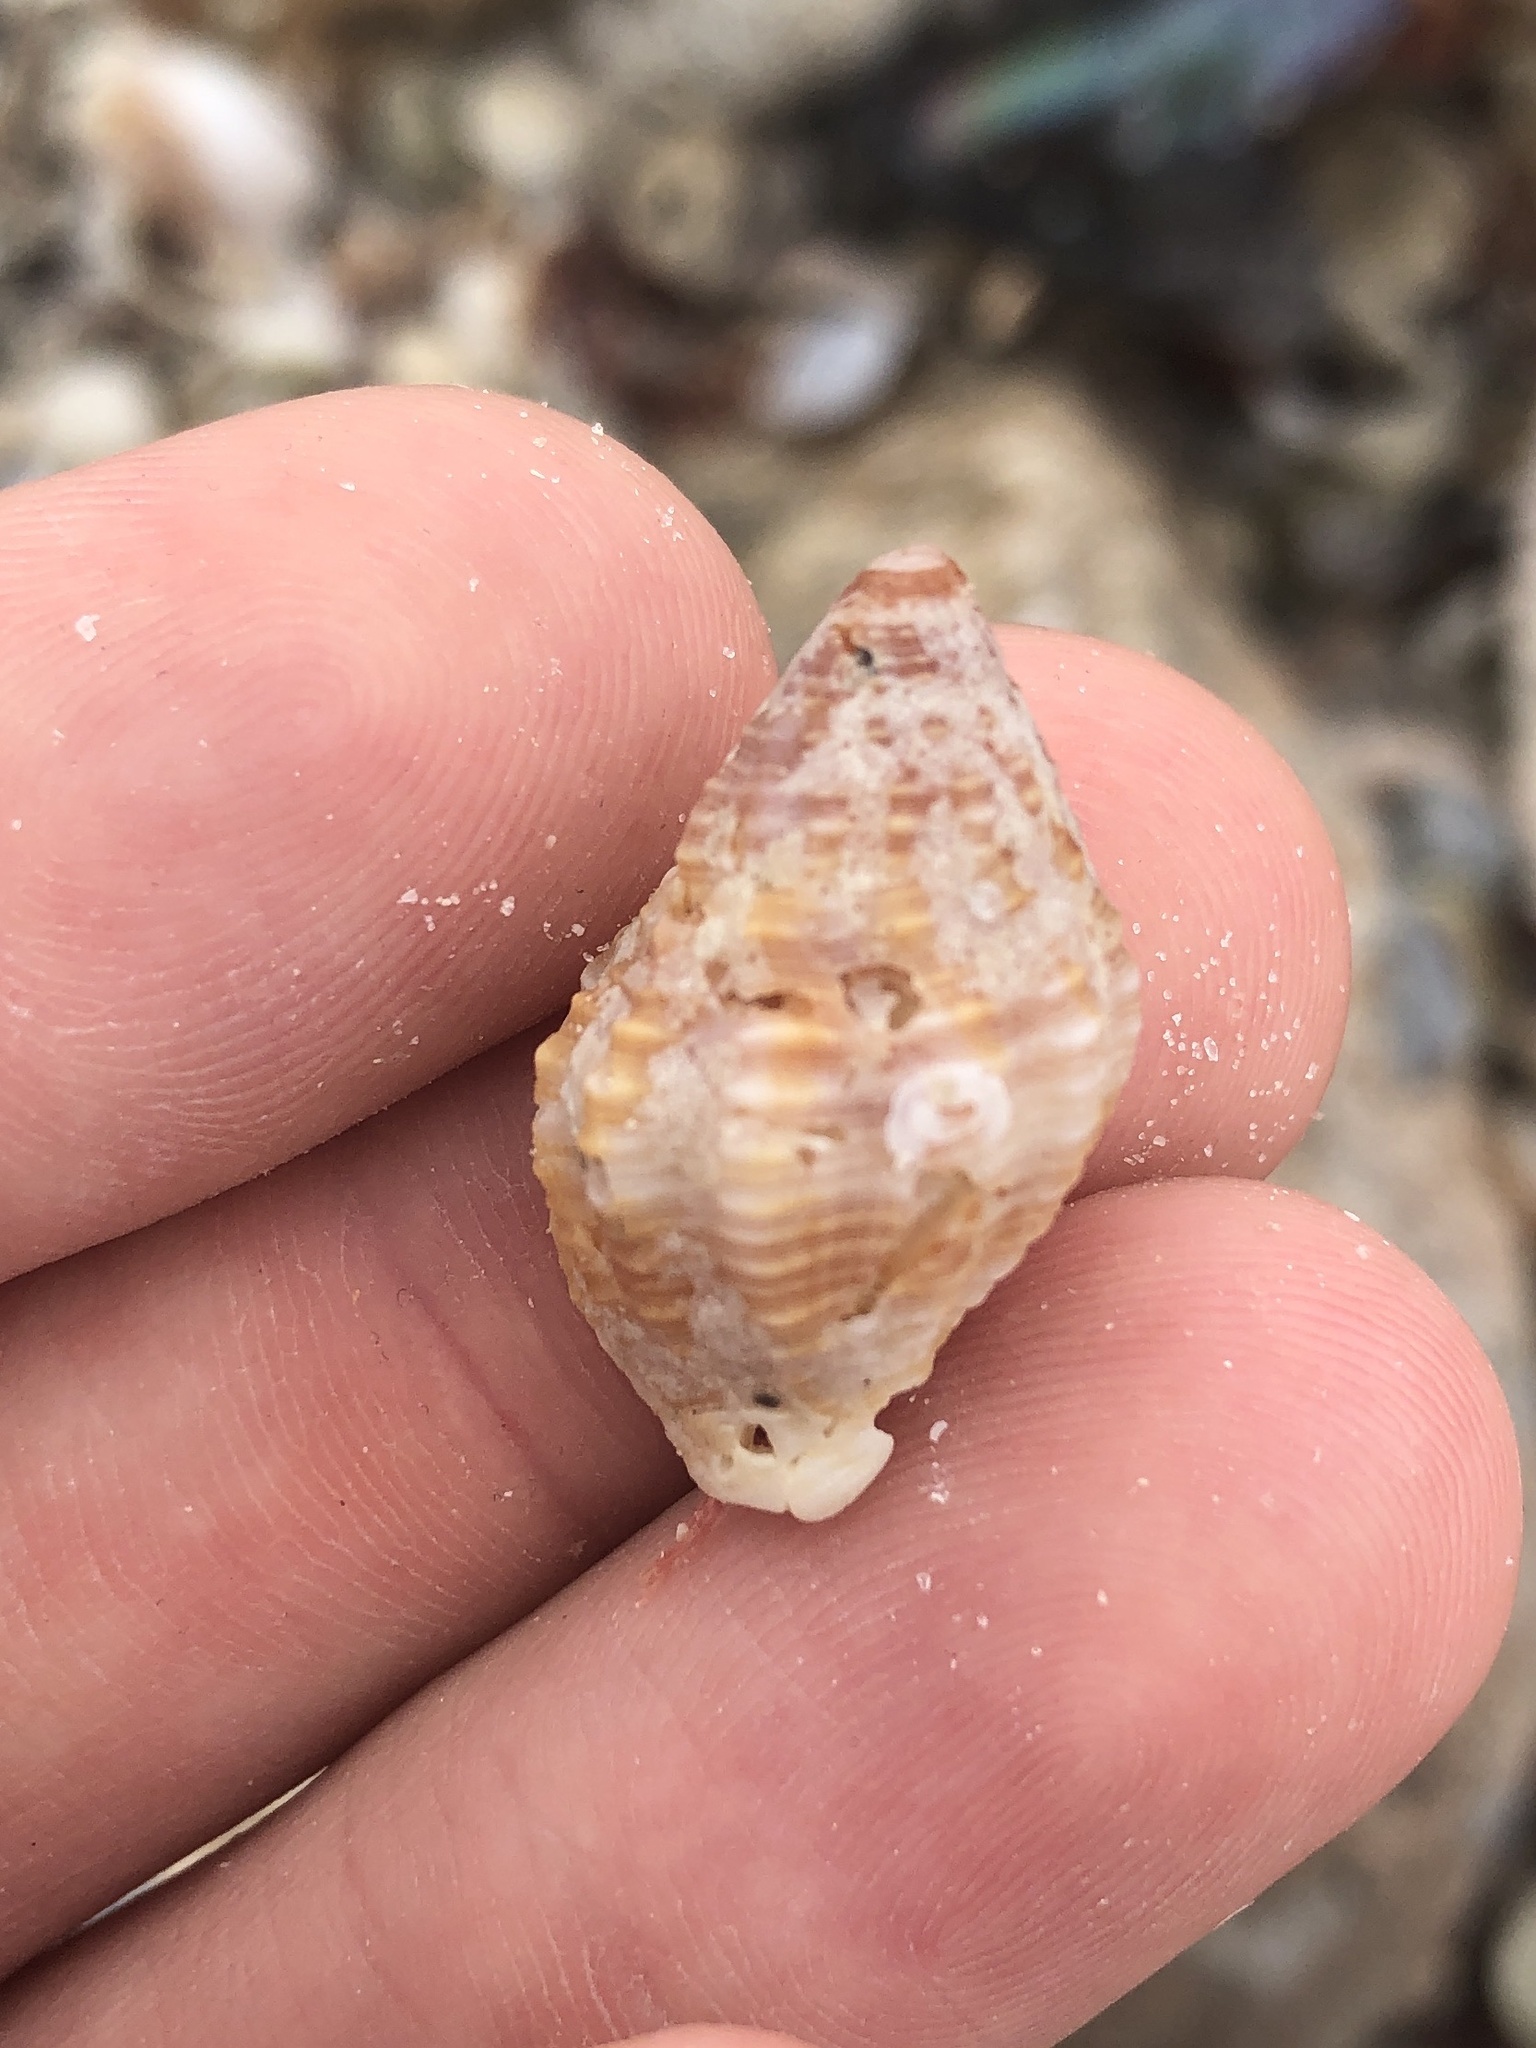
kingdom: Animalia
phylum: Mollusca
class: Gastropoda
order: Neogastropoda
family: Pisaniidae
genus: Gemophos
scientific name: Gemophos tinctus
